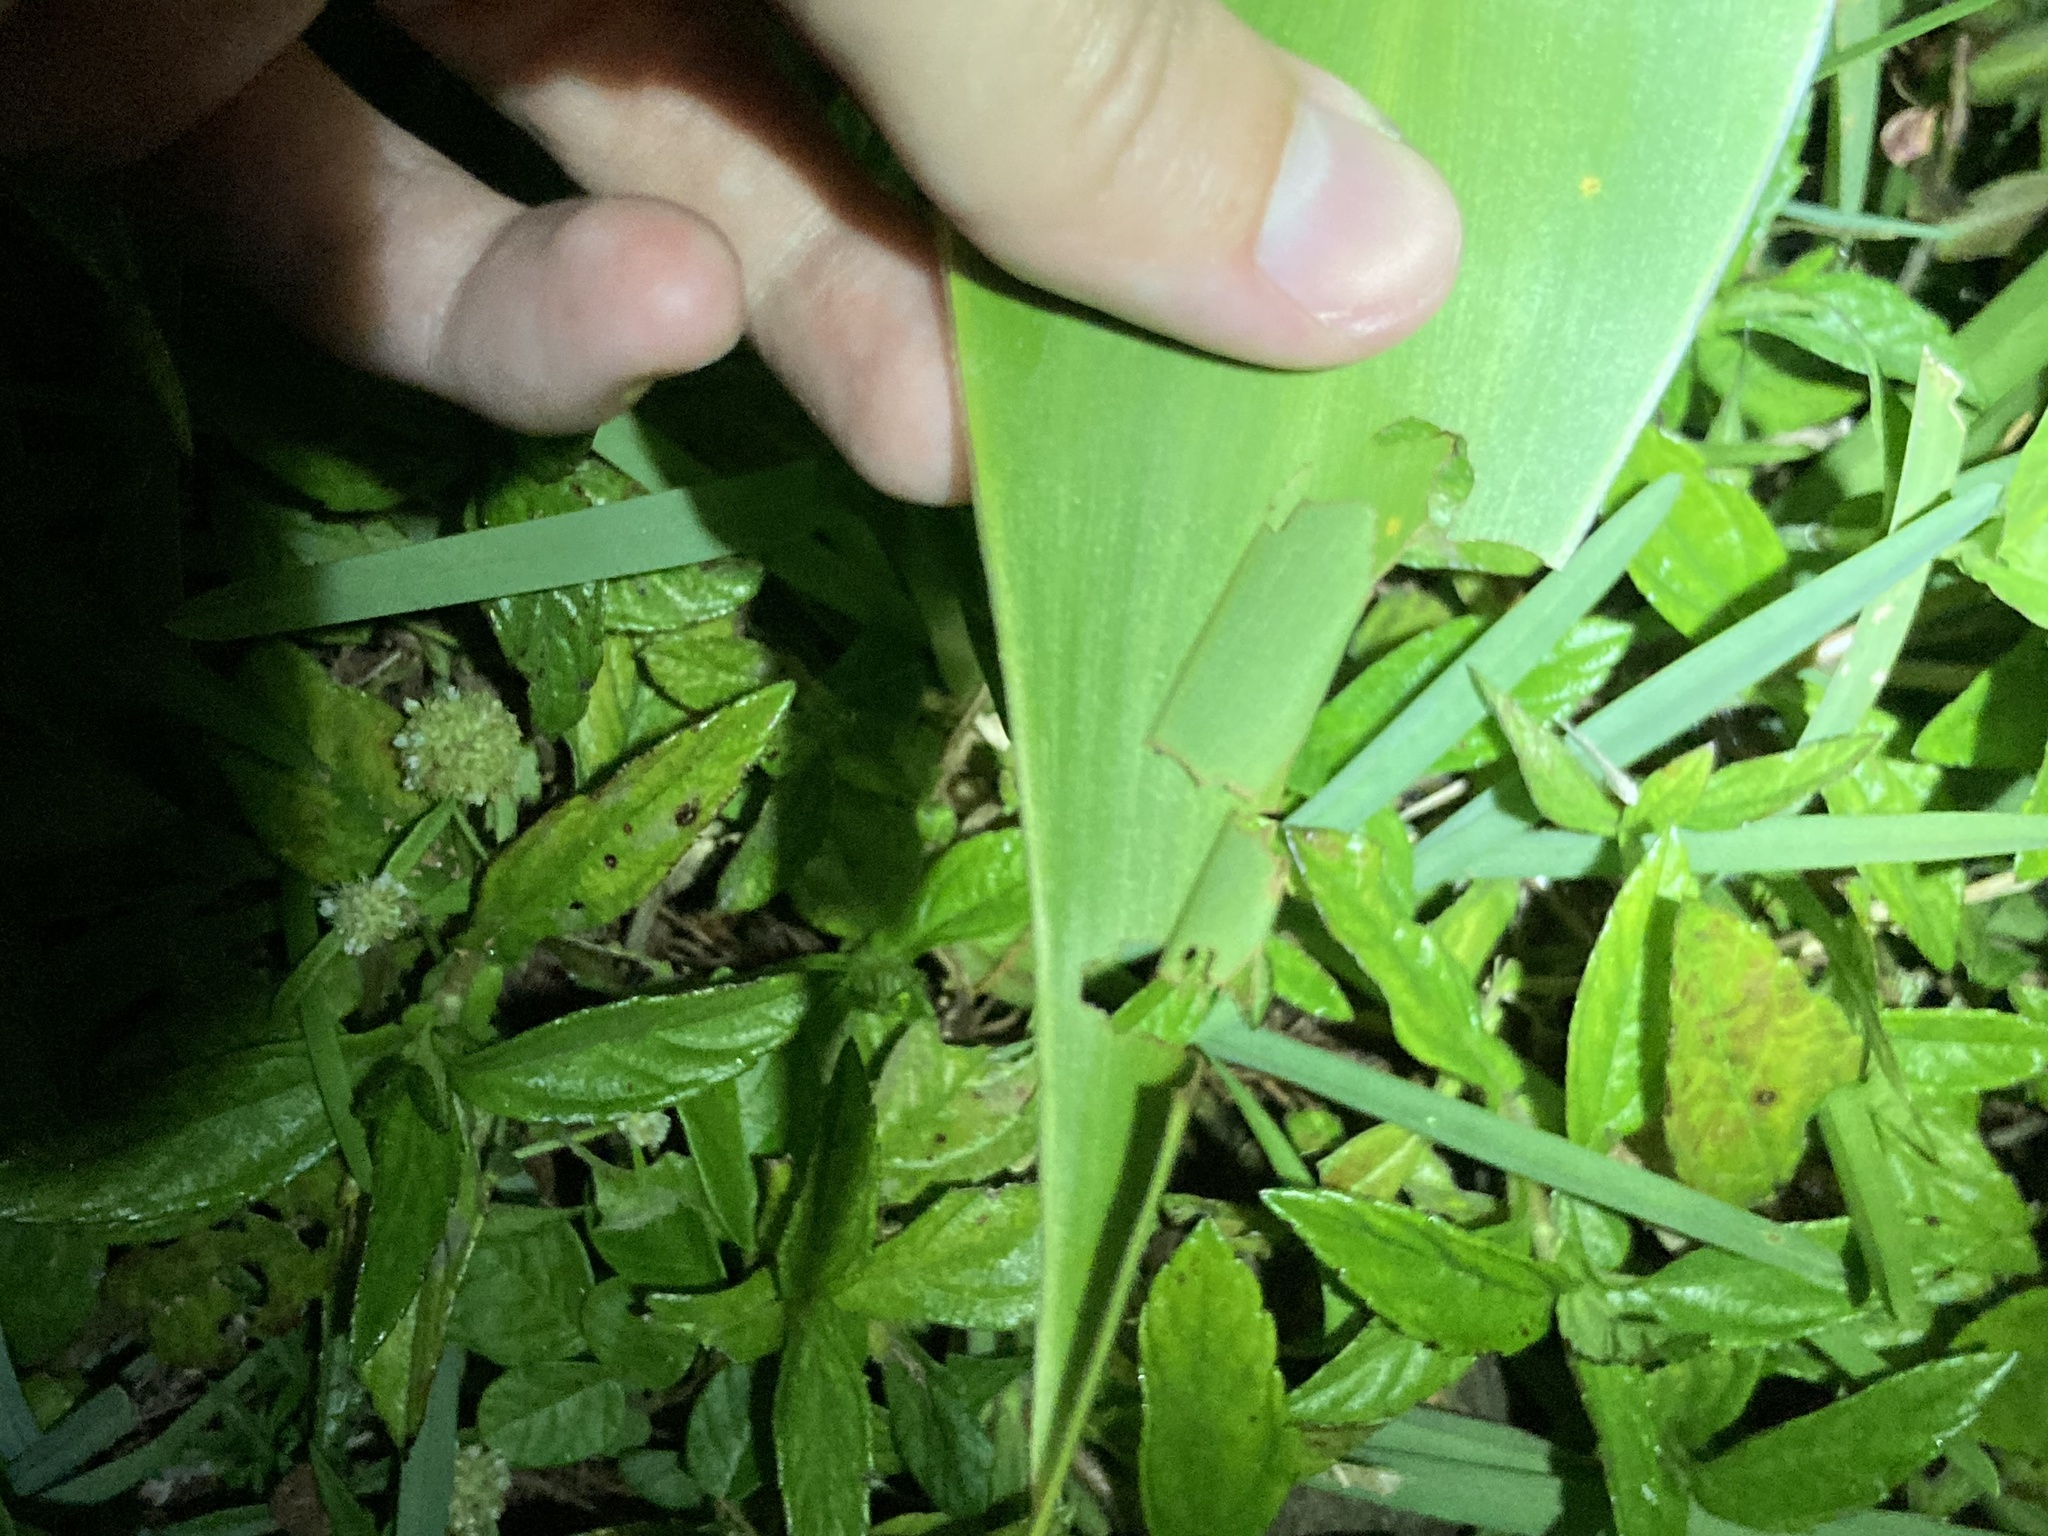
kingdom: Animalia
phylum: Arthropoda
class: Insecta
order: Lepidoptera
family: Hesperiidae
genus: Calpodes
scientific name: Calpodes ethlius
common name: Brazilian skipper
